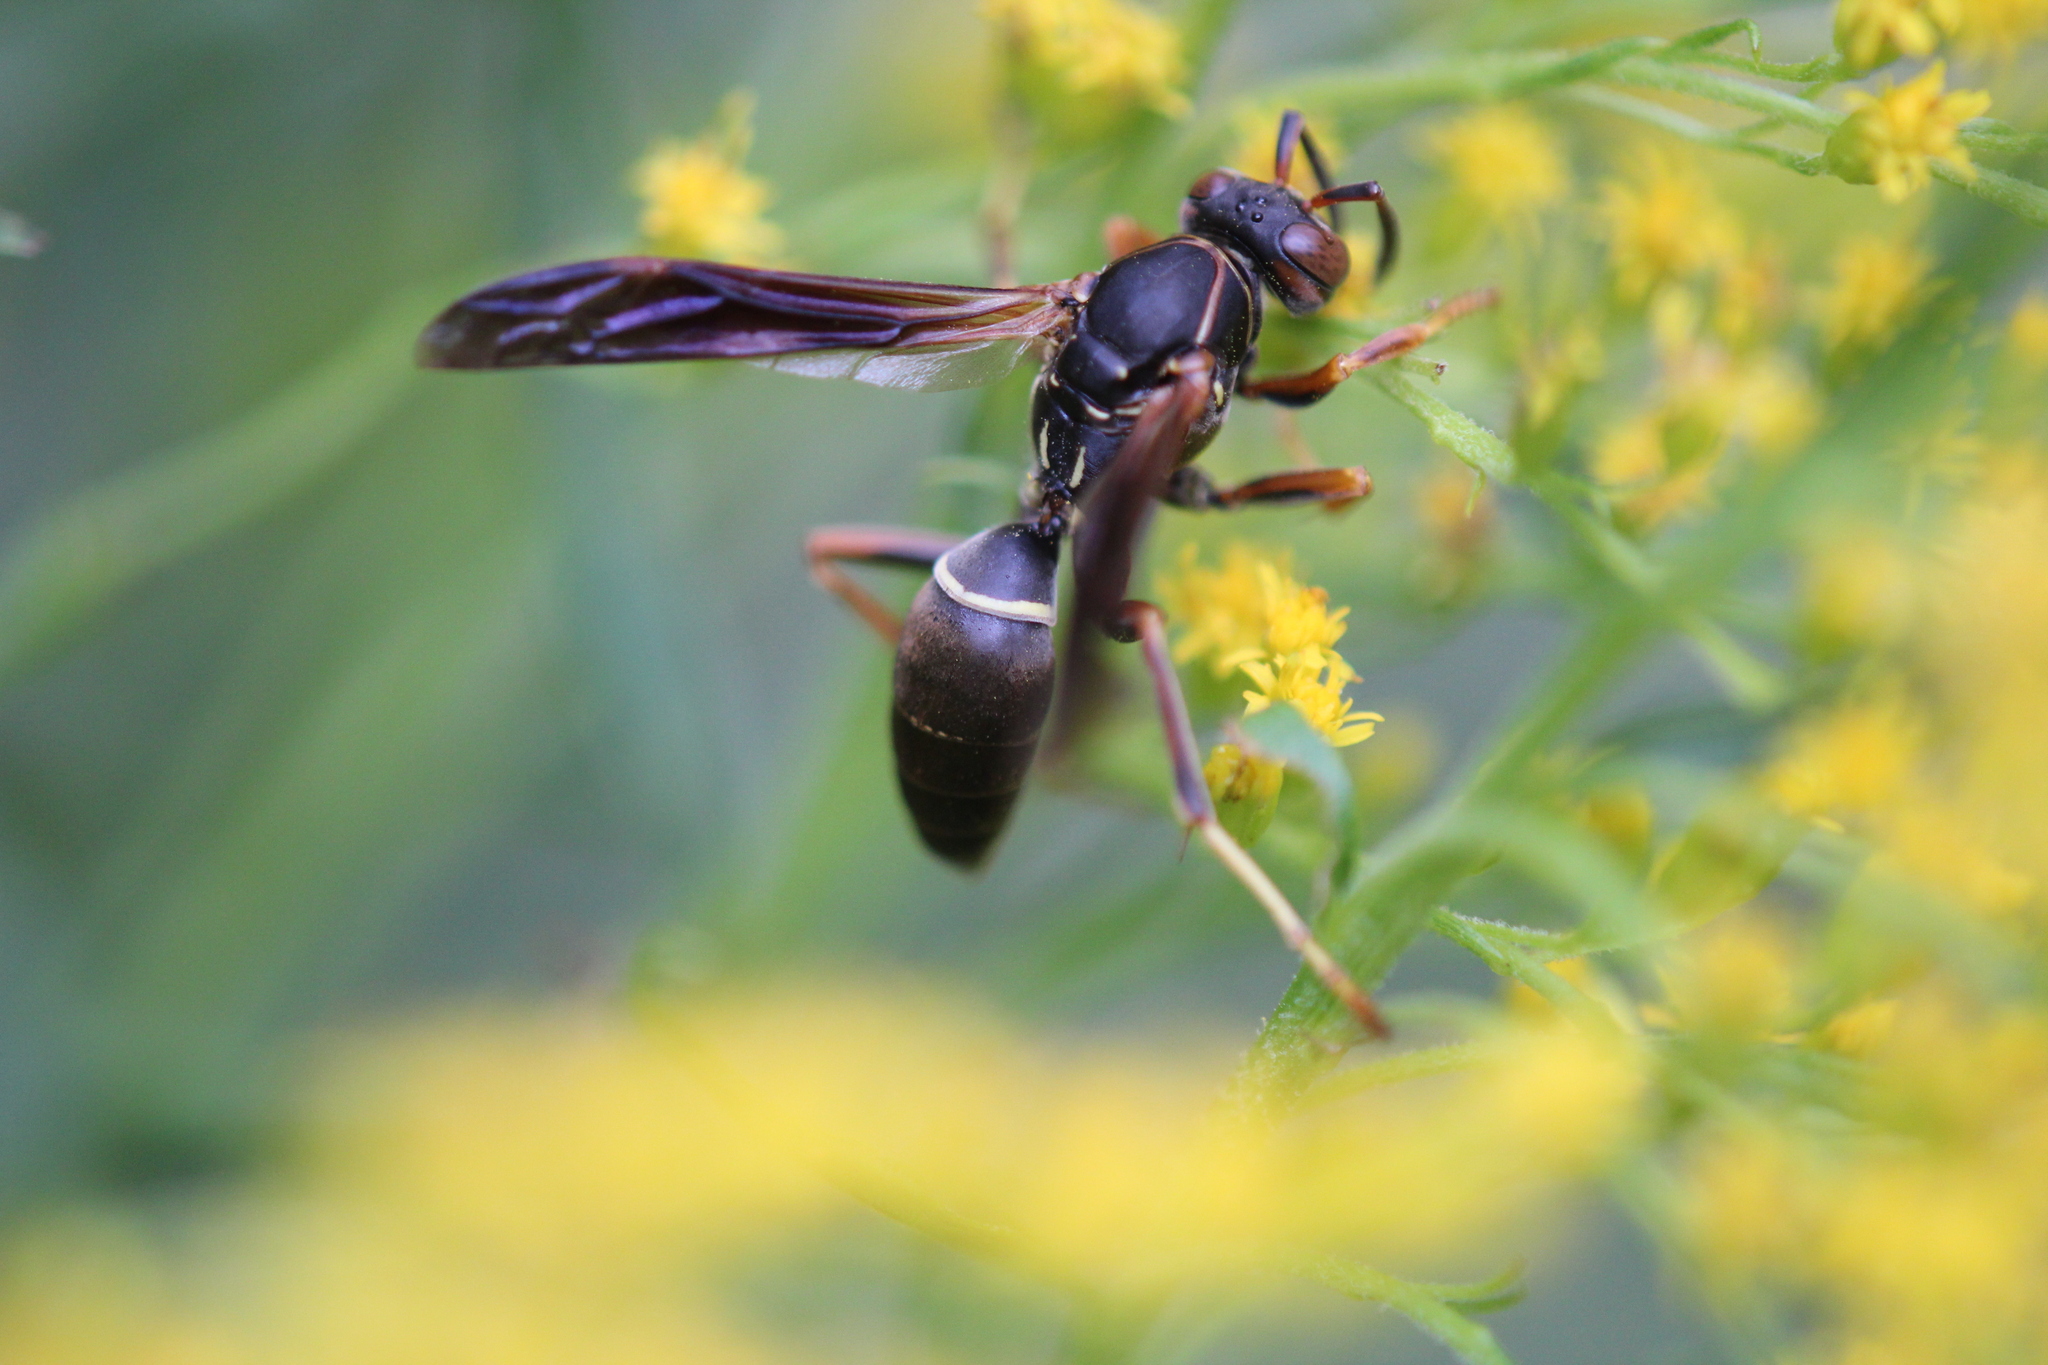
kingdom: Animalia
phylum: Arthropoda
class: Insecta
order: Hymenoptera
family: Eumenidae
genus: Polistes
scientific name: Polistes fuscatus
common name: Dark paper wasp
